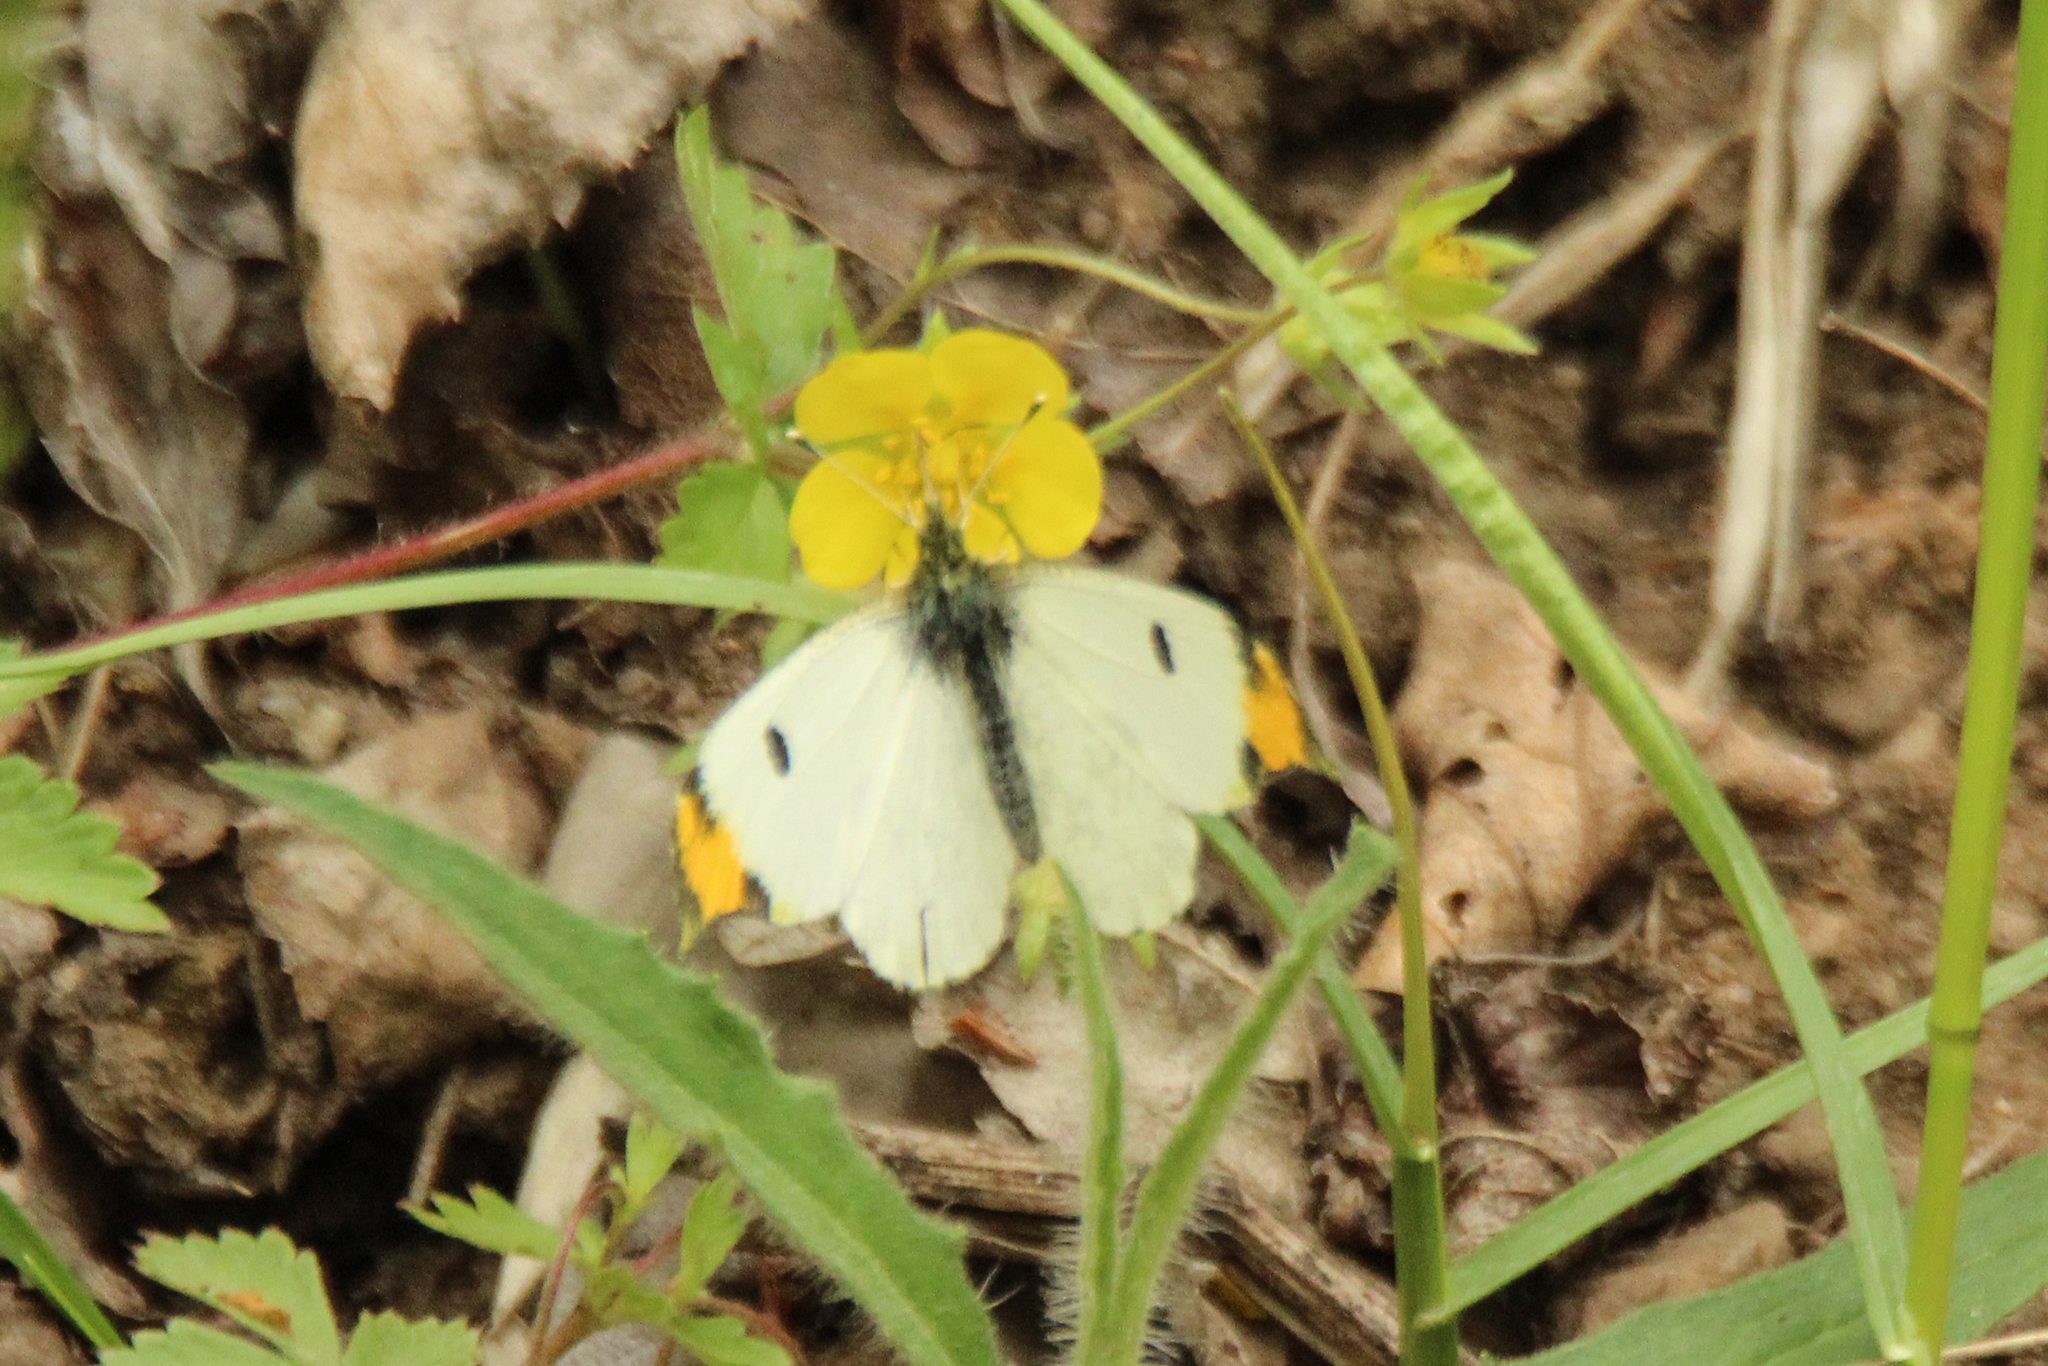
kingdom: Animalia
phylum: Arthropoda
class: Insecta
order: Lepidoptera
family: Pieridae
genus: Anthocharis
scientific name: Anthocharis scolymus
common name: Yellow tip
